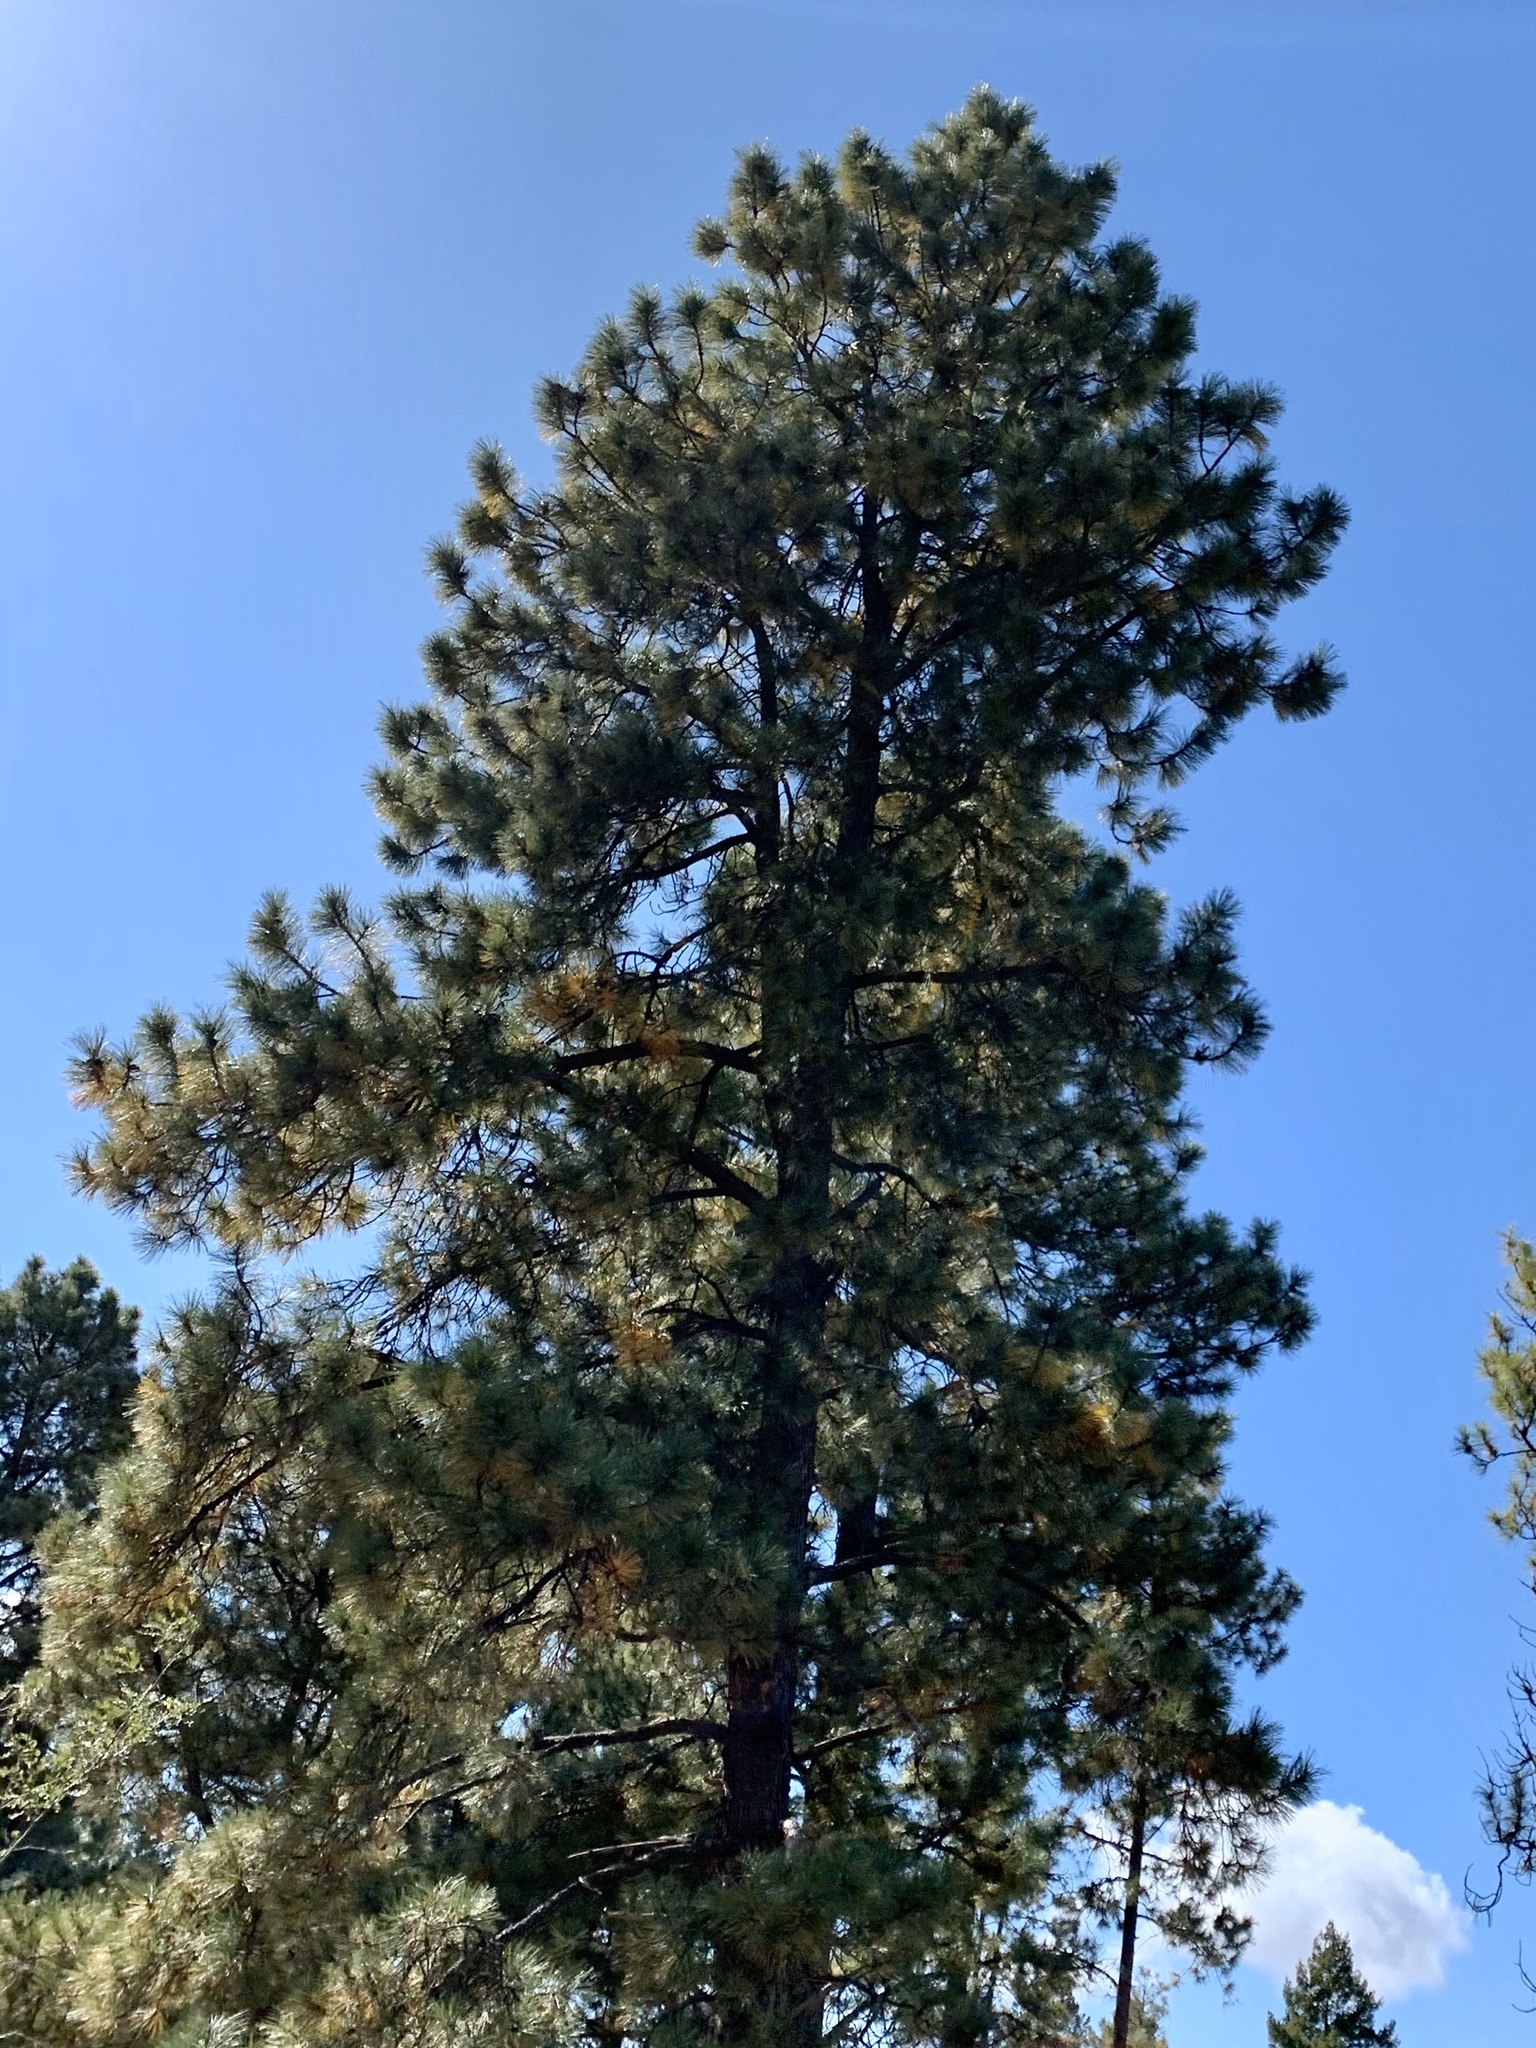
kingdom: Plantae
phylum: Tracheophyta
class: Pinopsida
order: Pinales
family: Pinaceae
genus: Pinus
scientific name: Pinus ponderosa
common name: Western yellow-pine
